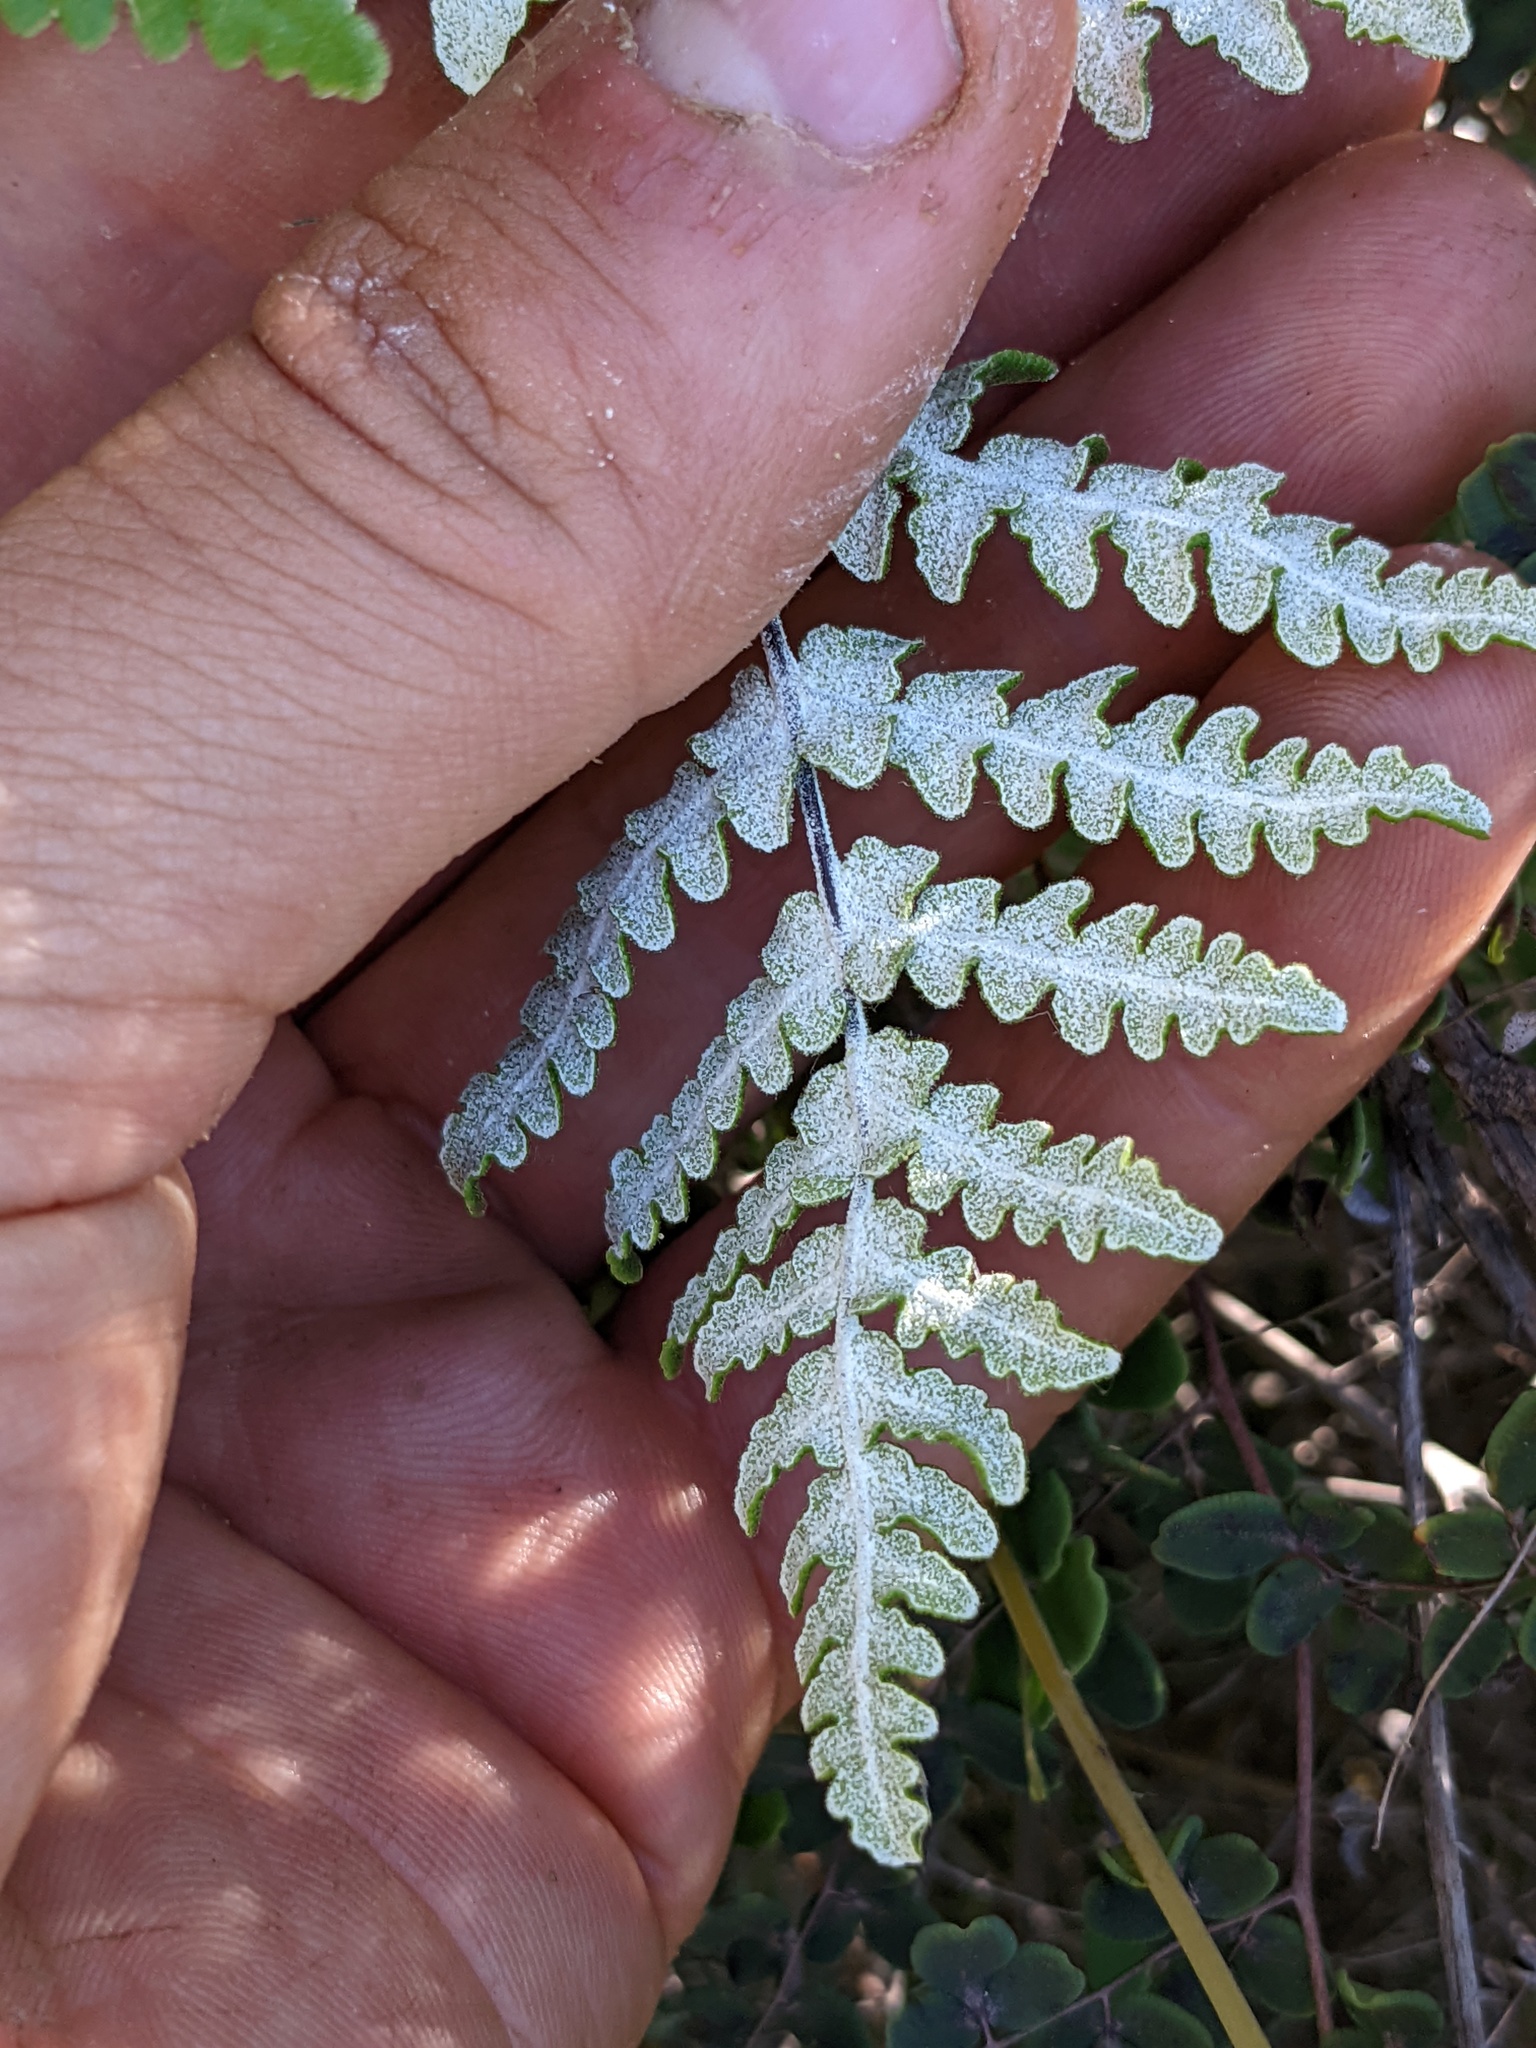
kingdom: Plantae
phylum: Tracheophyta
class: Polypodiopsida
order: Polypodiales
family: Pteridaceae
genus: Pentagramma
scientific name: Pentagramma glanduloviscida
